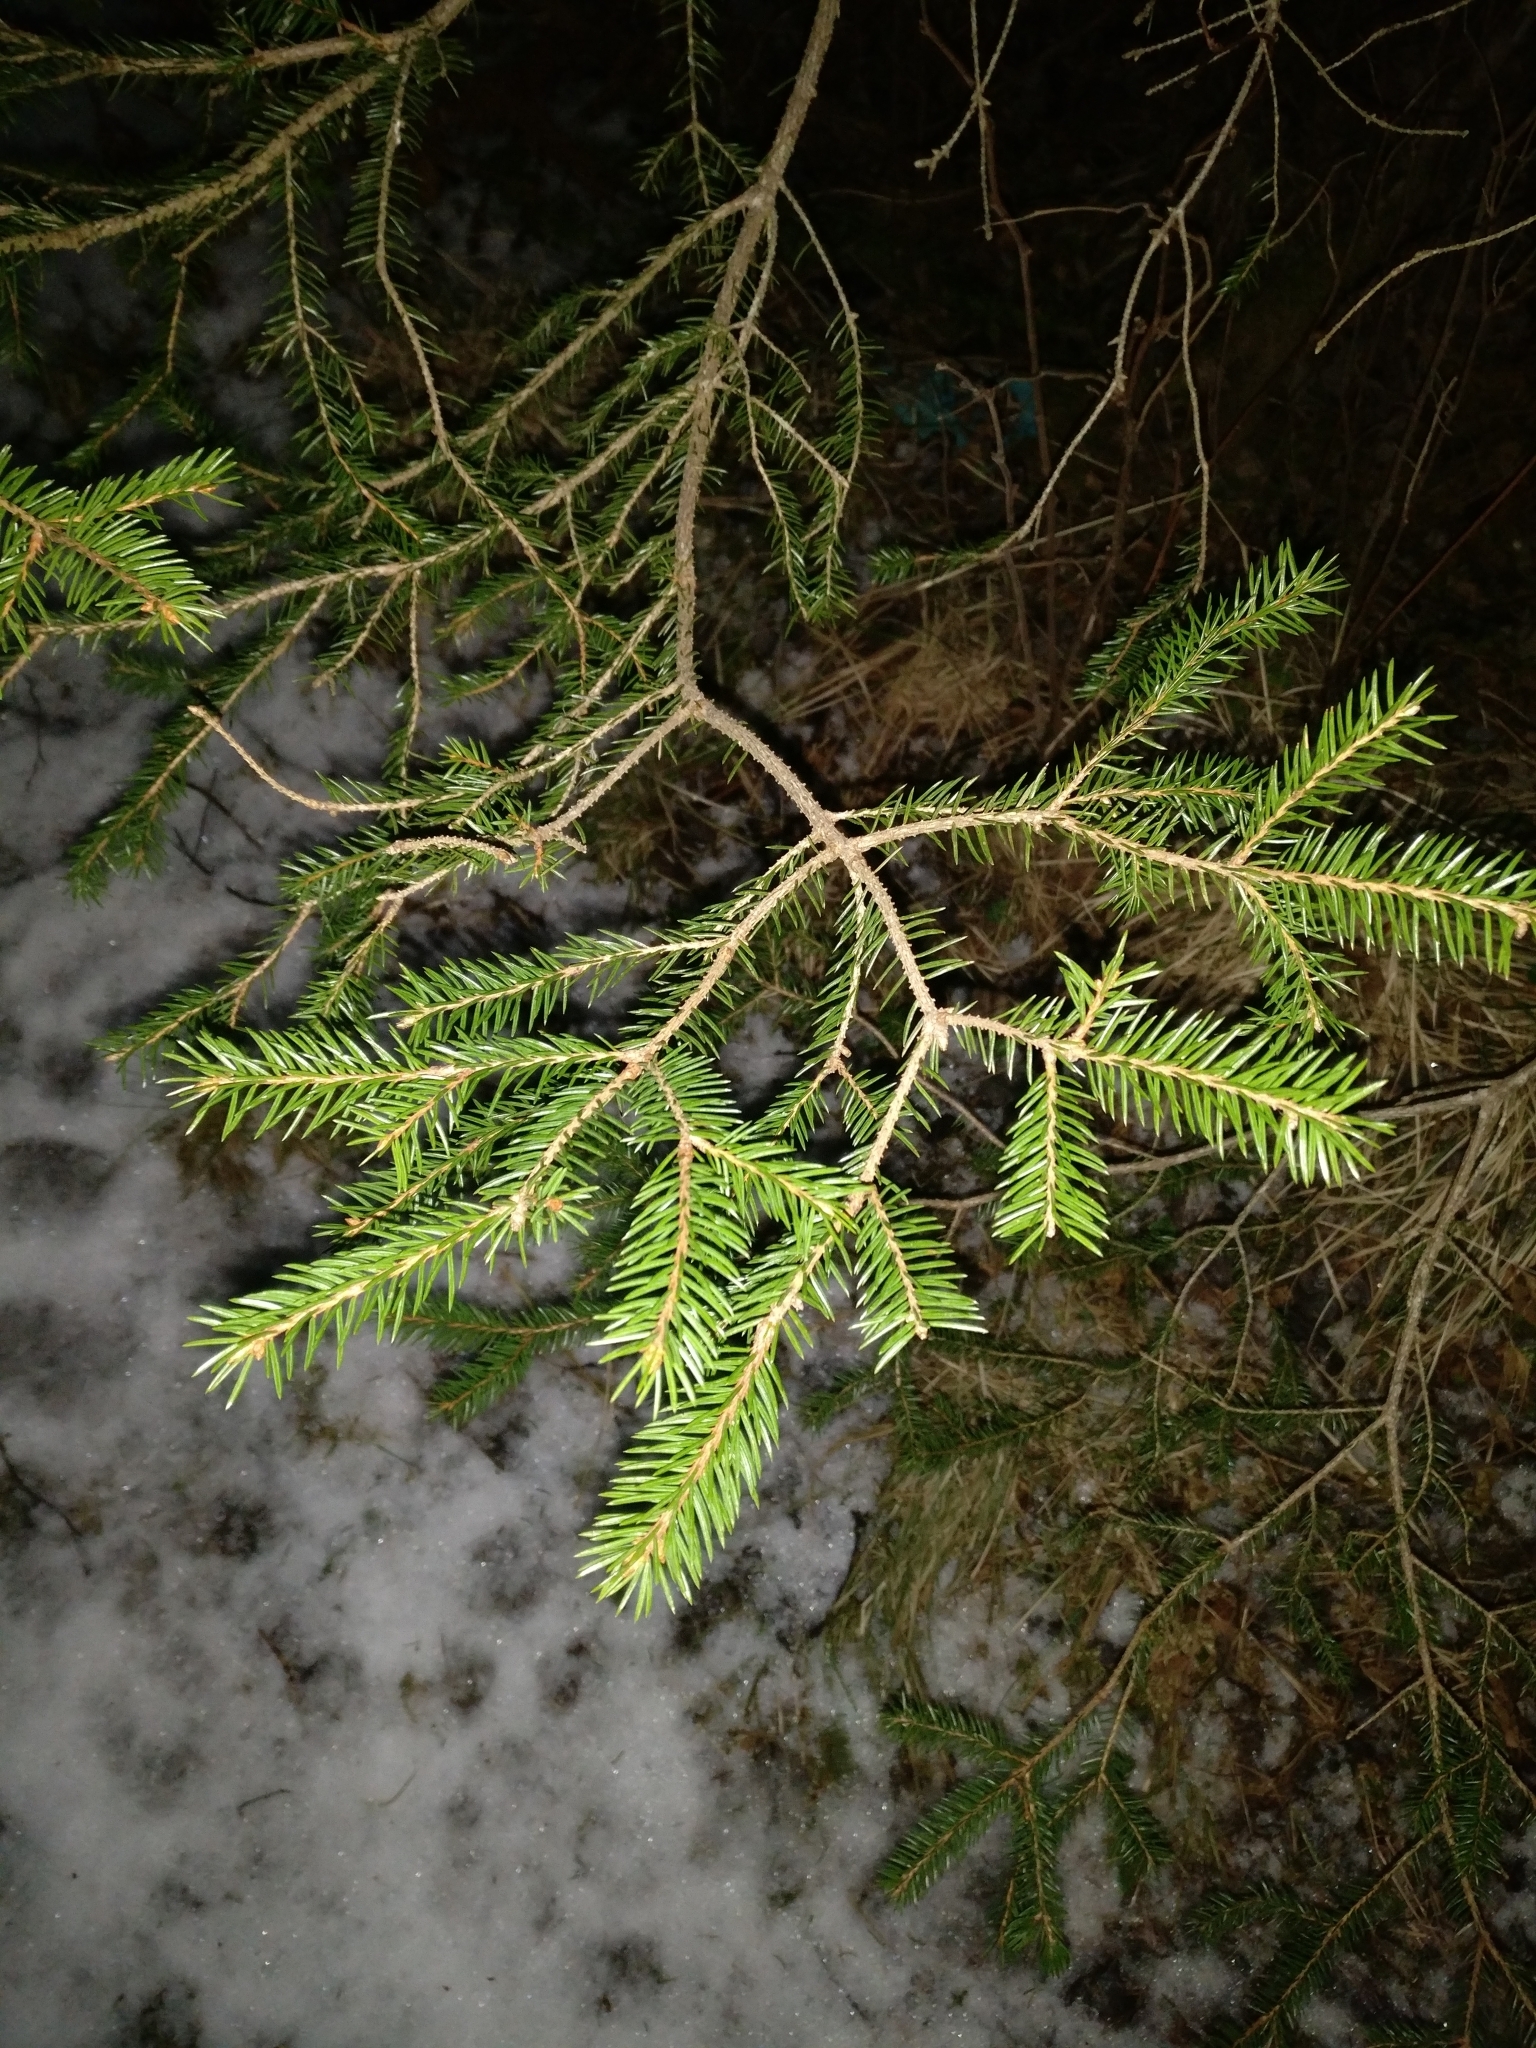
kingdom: Plantae
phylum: Tracheophyta
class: Pinopsida
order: Pinales
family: Pinaceae
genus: Picea
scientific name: Picea abies
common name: Norway spruce
